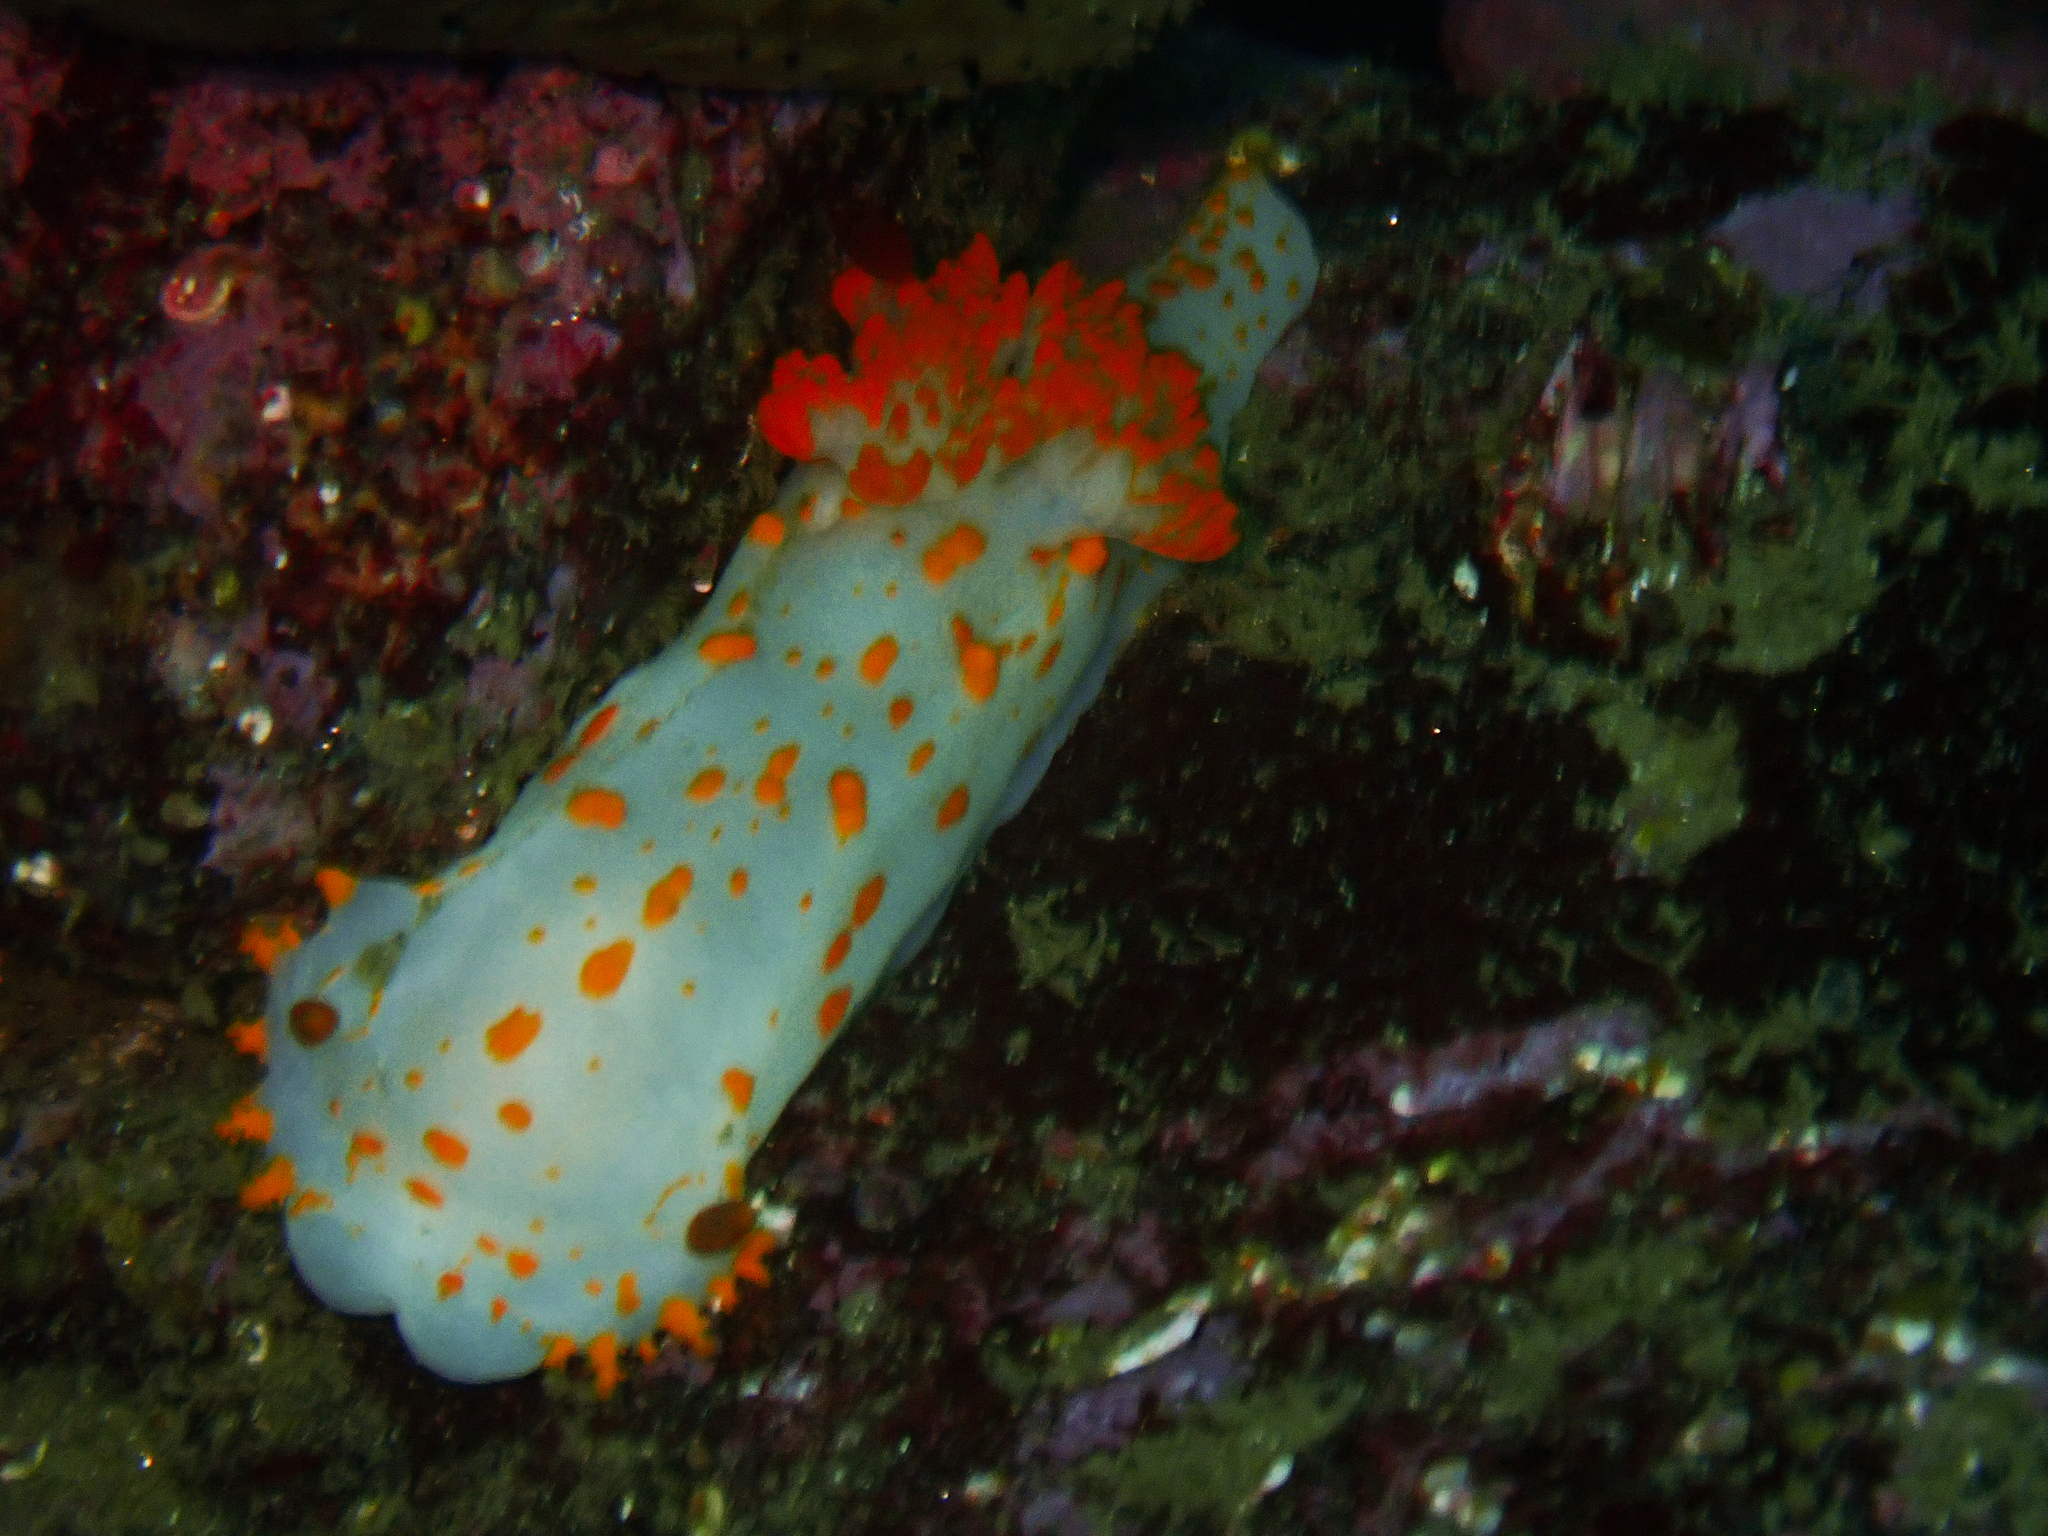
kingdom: Animalia
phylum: Mollusca
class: Gastropoda
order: Nudibranchia
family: Polyceridae
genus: Triopha
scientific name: Triopha catalinae
